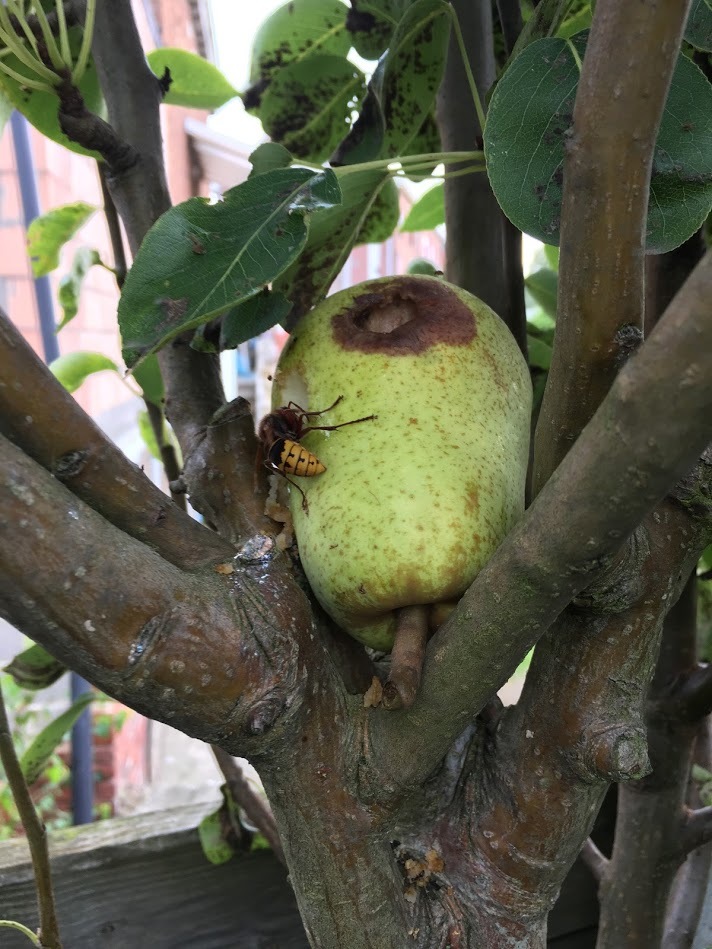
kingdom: Animalia
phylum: Arthropoda
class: Insecta
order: Hymenoptera
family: Vespidae
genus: Vespa
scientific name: Vespa crabro
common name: Hornet
